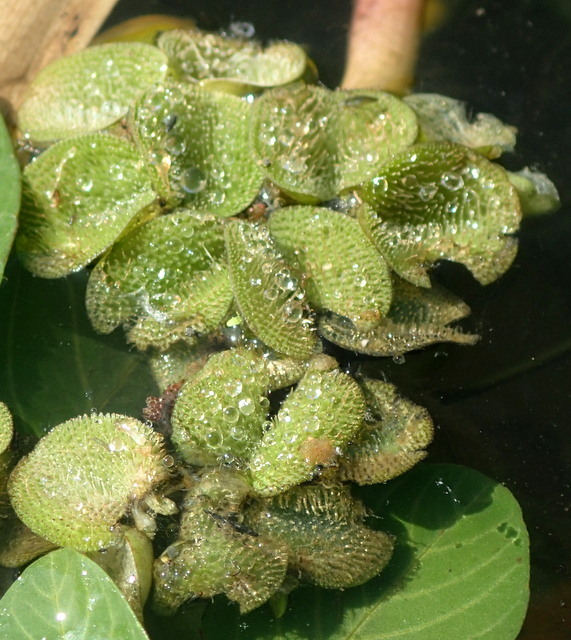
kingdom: Plantae
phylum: Tracheophyta
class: Polypodiopsida
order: Salviniales
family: Salviniaceae
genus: Salvinia
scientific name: Salvinia minima
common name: Water spangles
